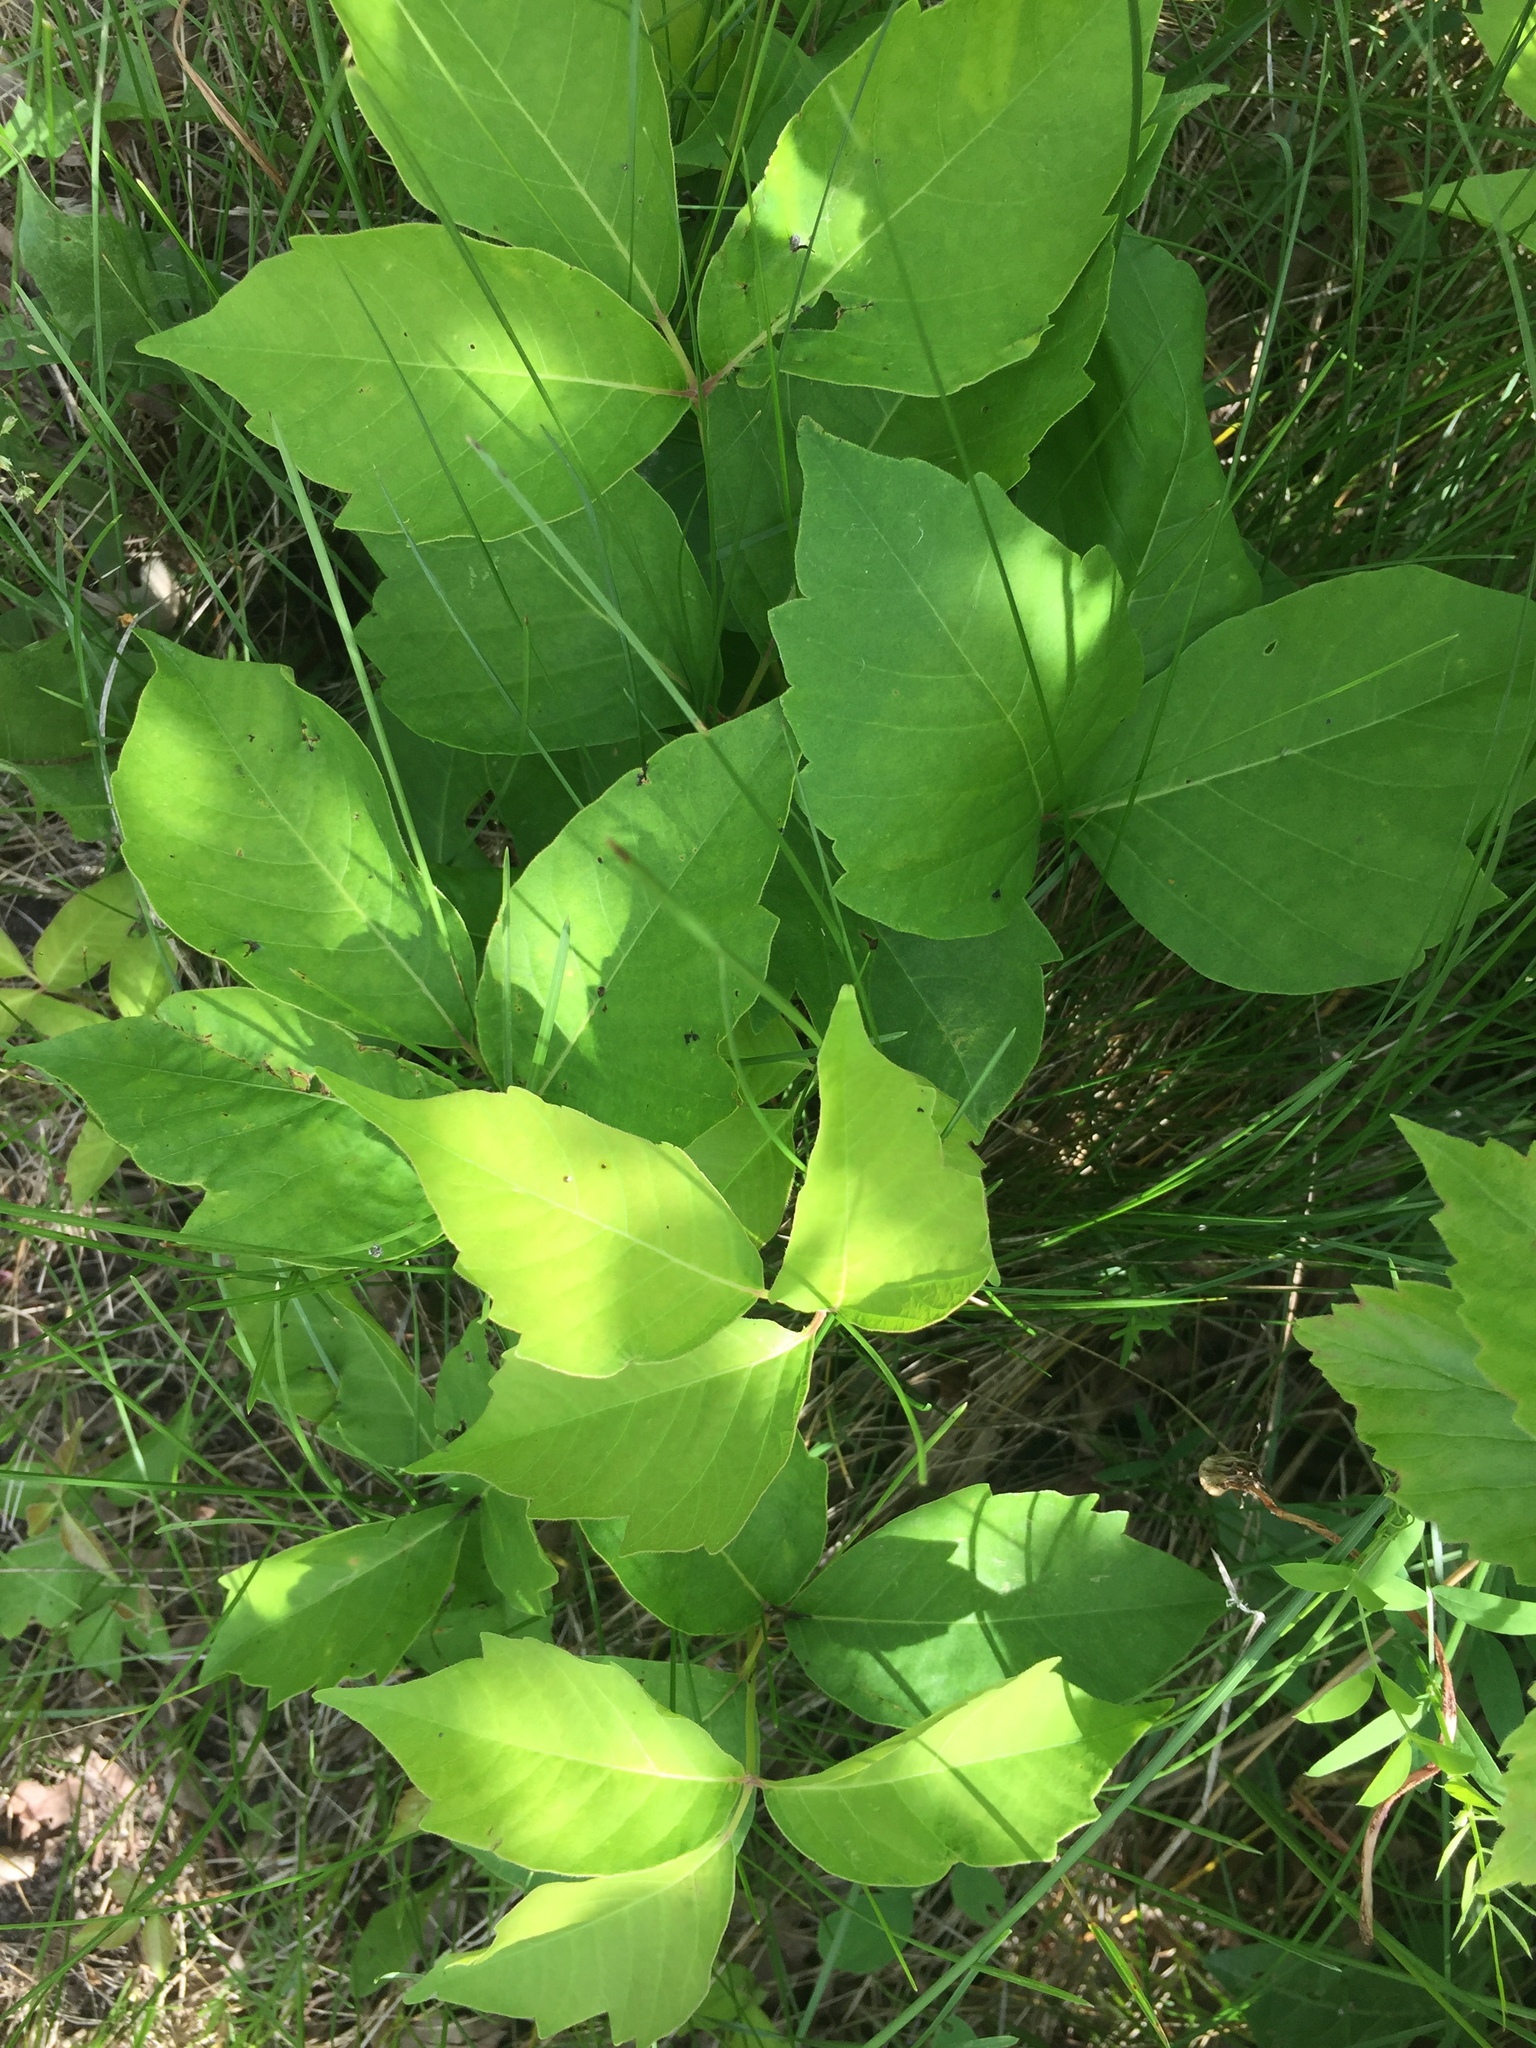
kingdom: Plantae
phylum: Tracheophyta
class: Magnoliopsida
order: Sapindales
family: Anacardiaceae
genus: Toxicodendron
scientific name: Toxicodendron rydbergii
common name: Rydberg's poison-ivy
